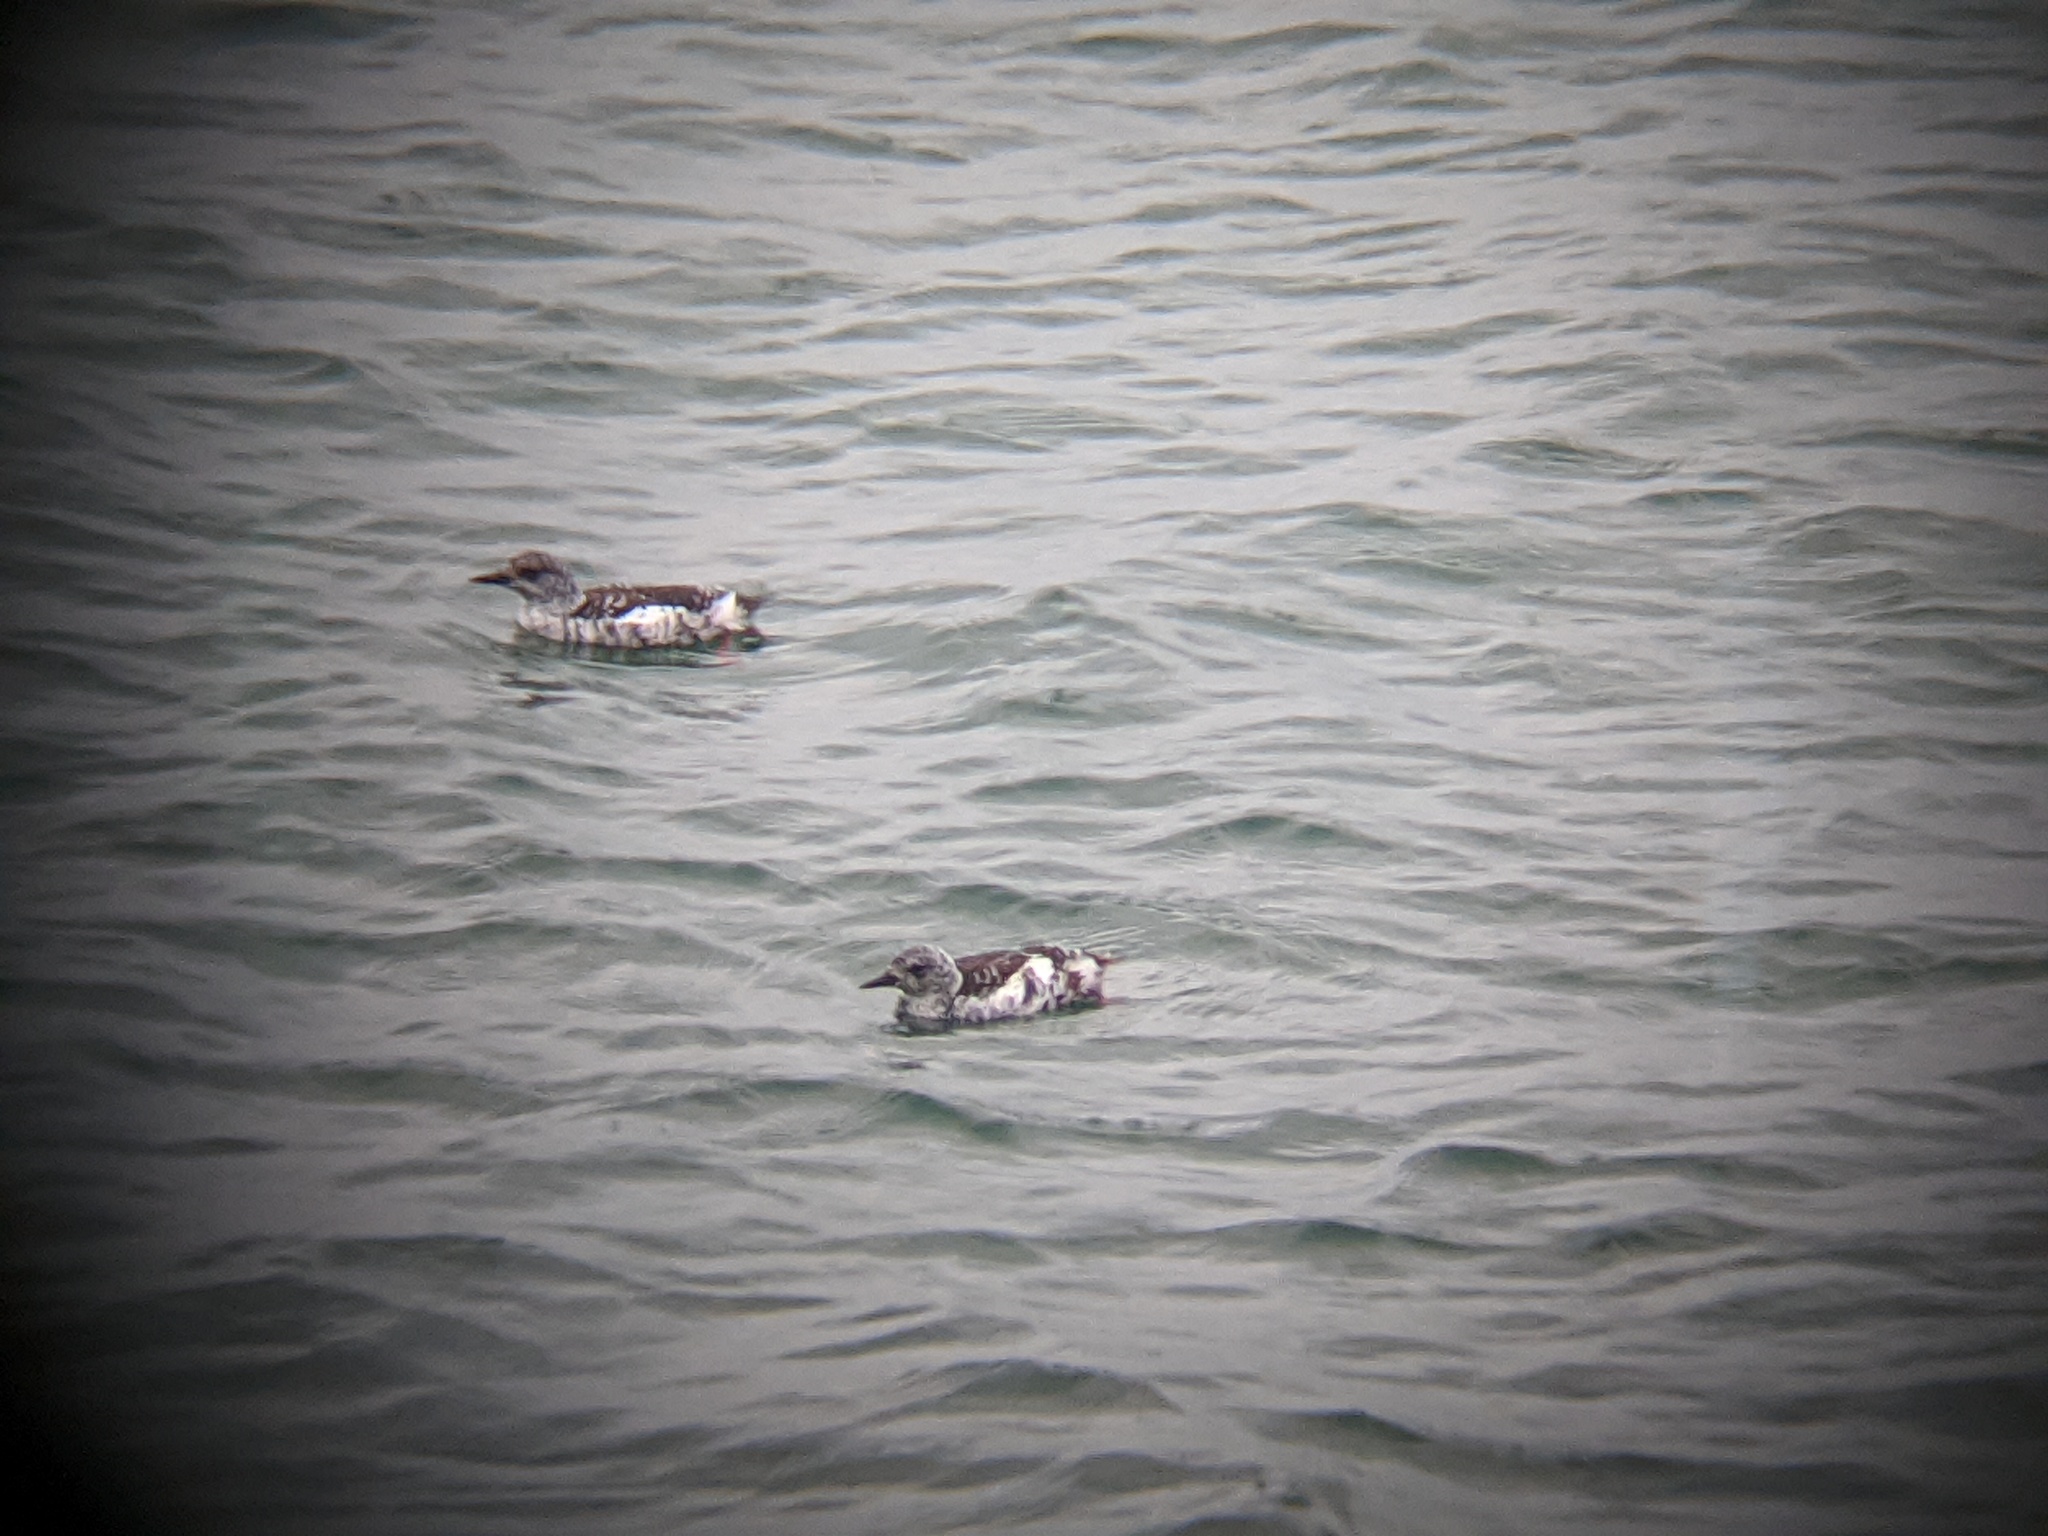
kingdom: Animalia
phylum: Chordata
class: Aves
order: Charadriiformes
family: Alcidae
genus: Cepphus
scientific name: Cepphus grylle
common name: Black guillemot
